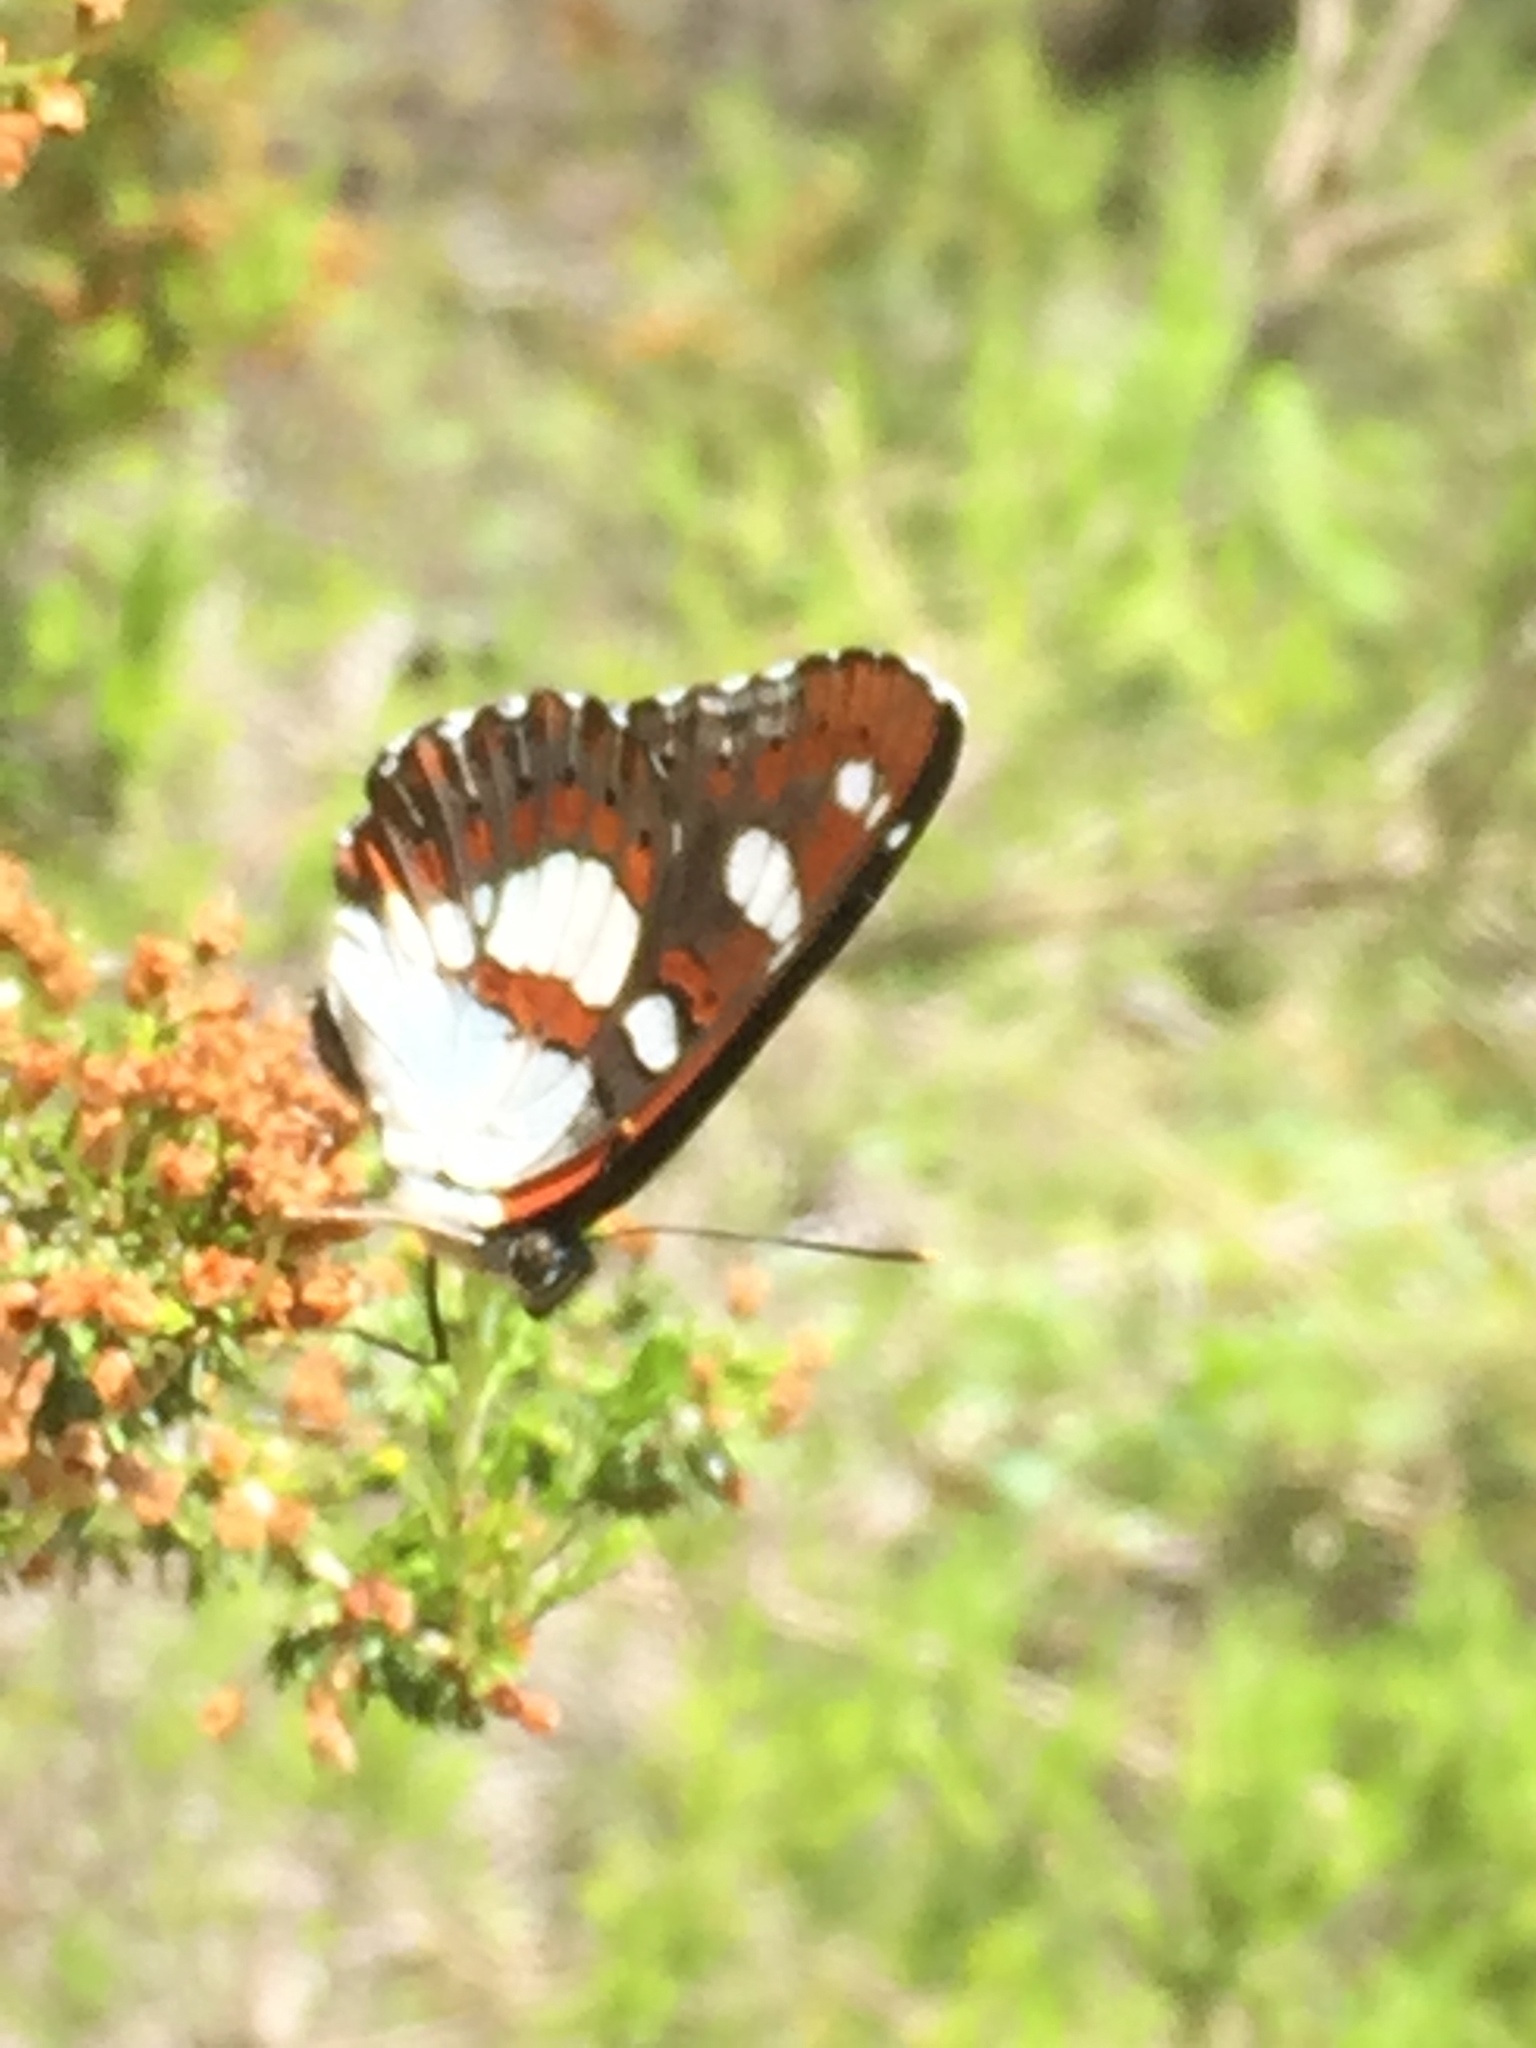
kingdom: Animalia
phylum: Arthropoda
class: Insecta
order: Lepidoptera
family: Nymphalidae
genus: Limenitis
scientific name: Limenitis reducta
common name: Southern white admiral
